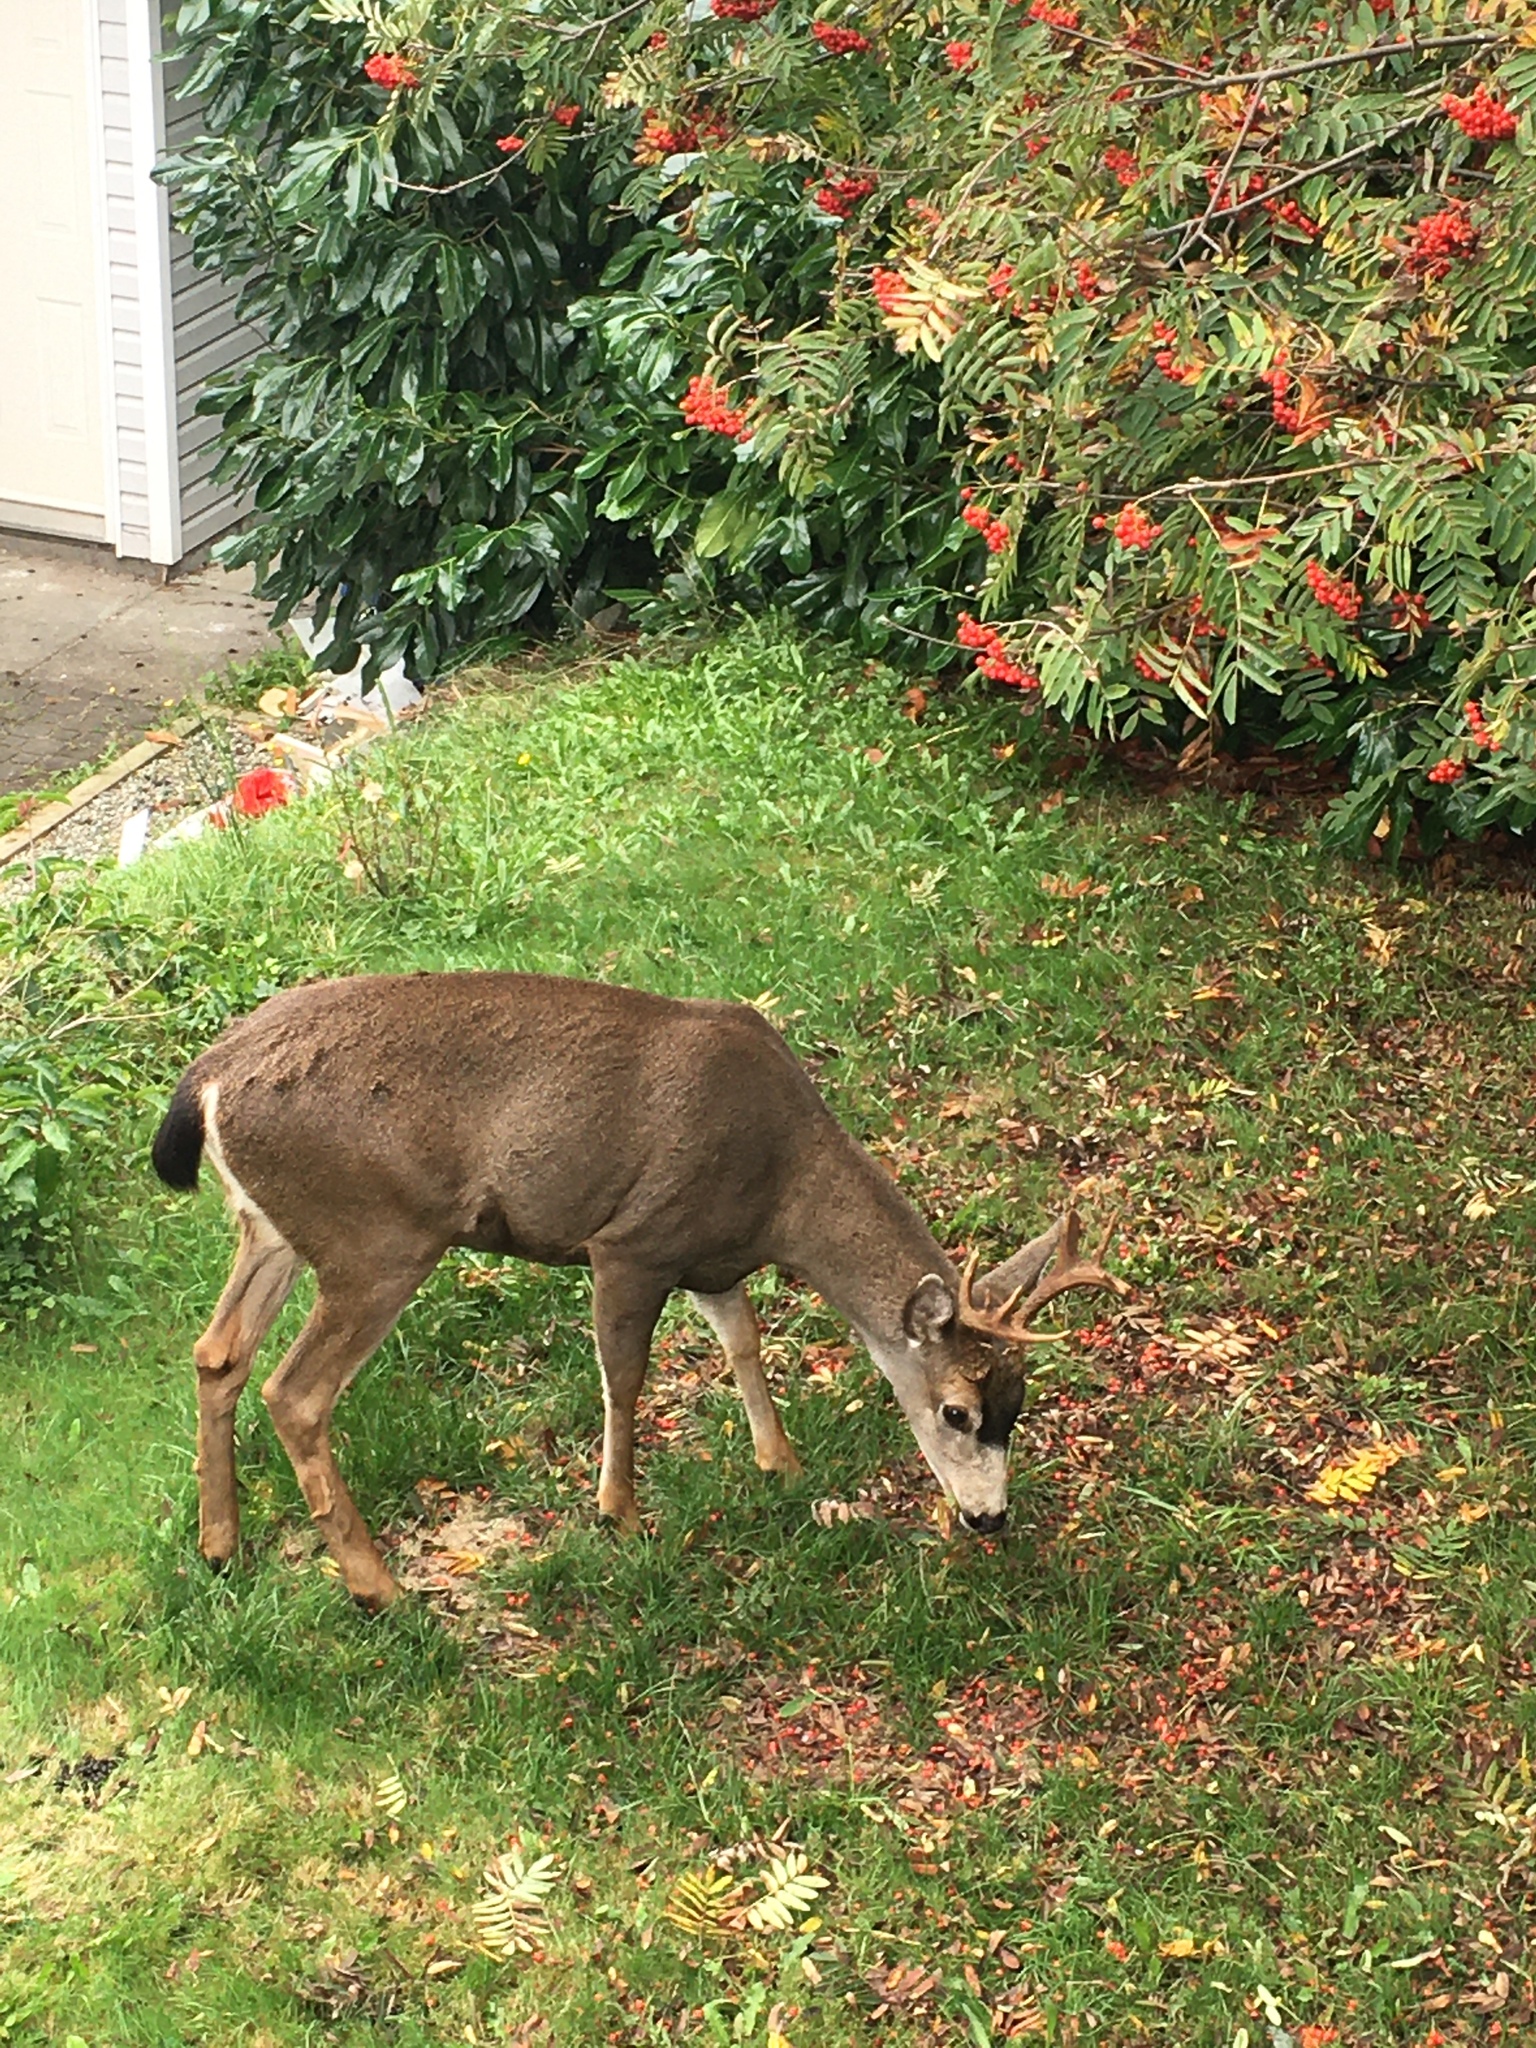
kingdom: Animalia
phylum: Chordata
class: Mammalia
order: Artiodactyla
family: Cervidae
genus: Odocoileus
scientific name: Odocoileus hemionus
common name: Mule deer
